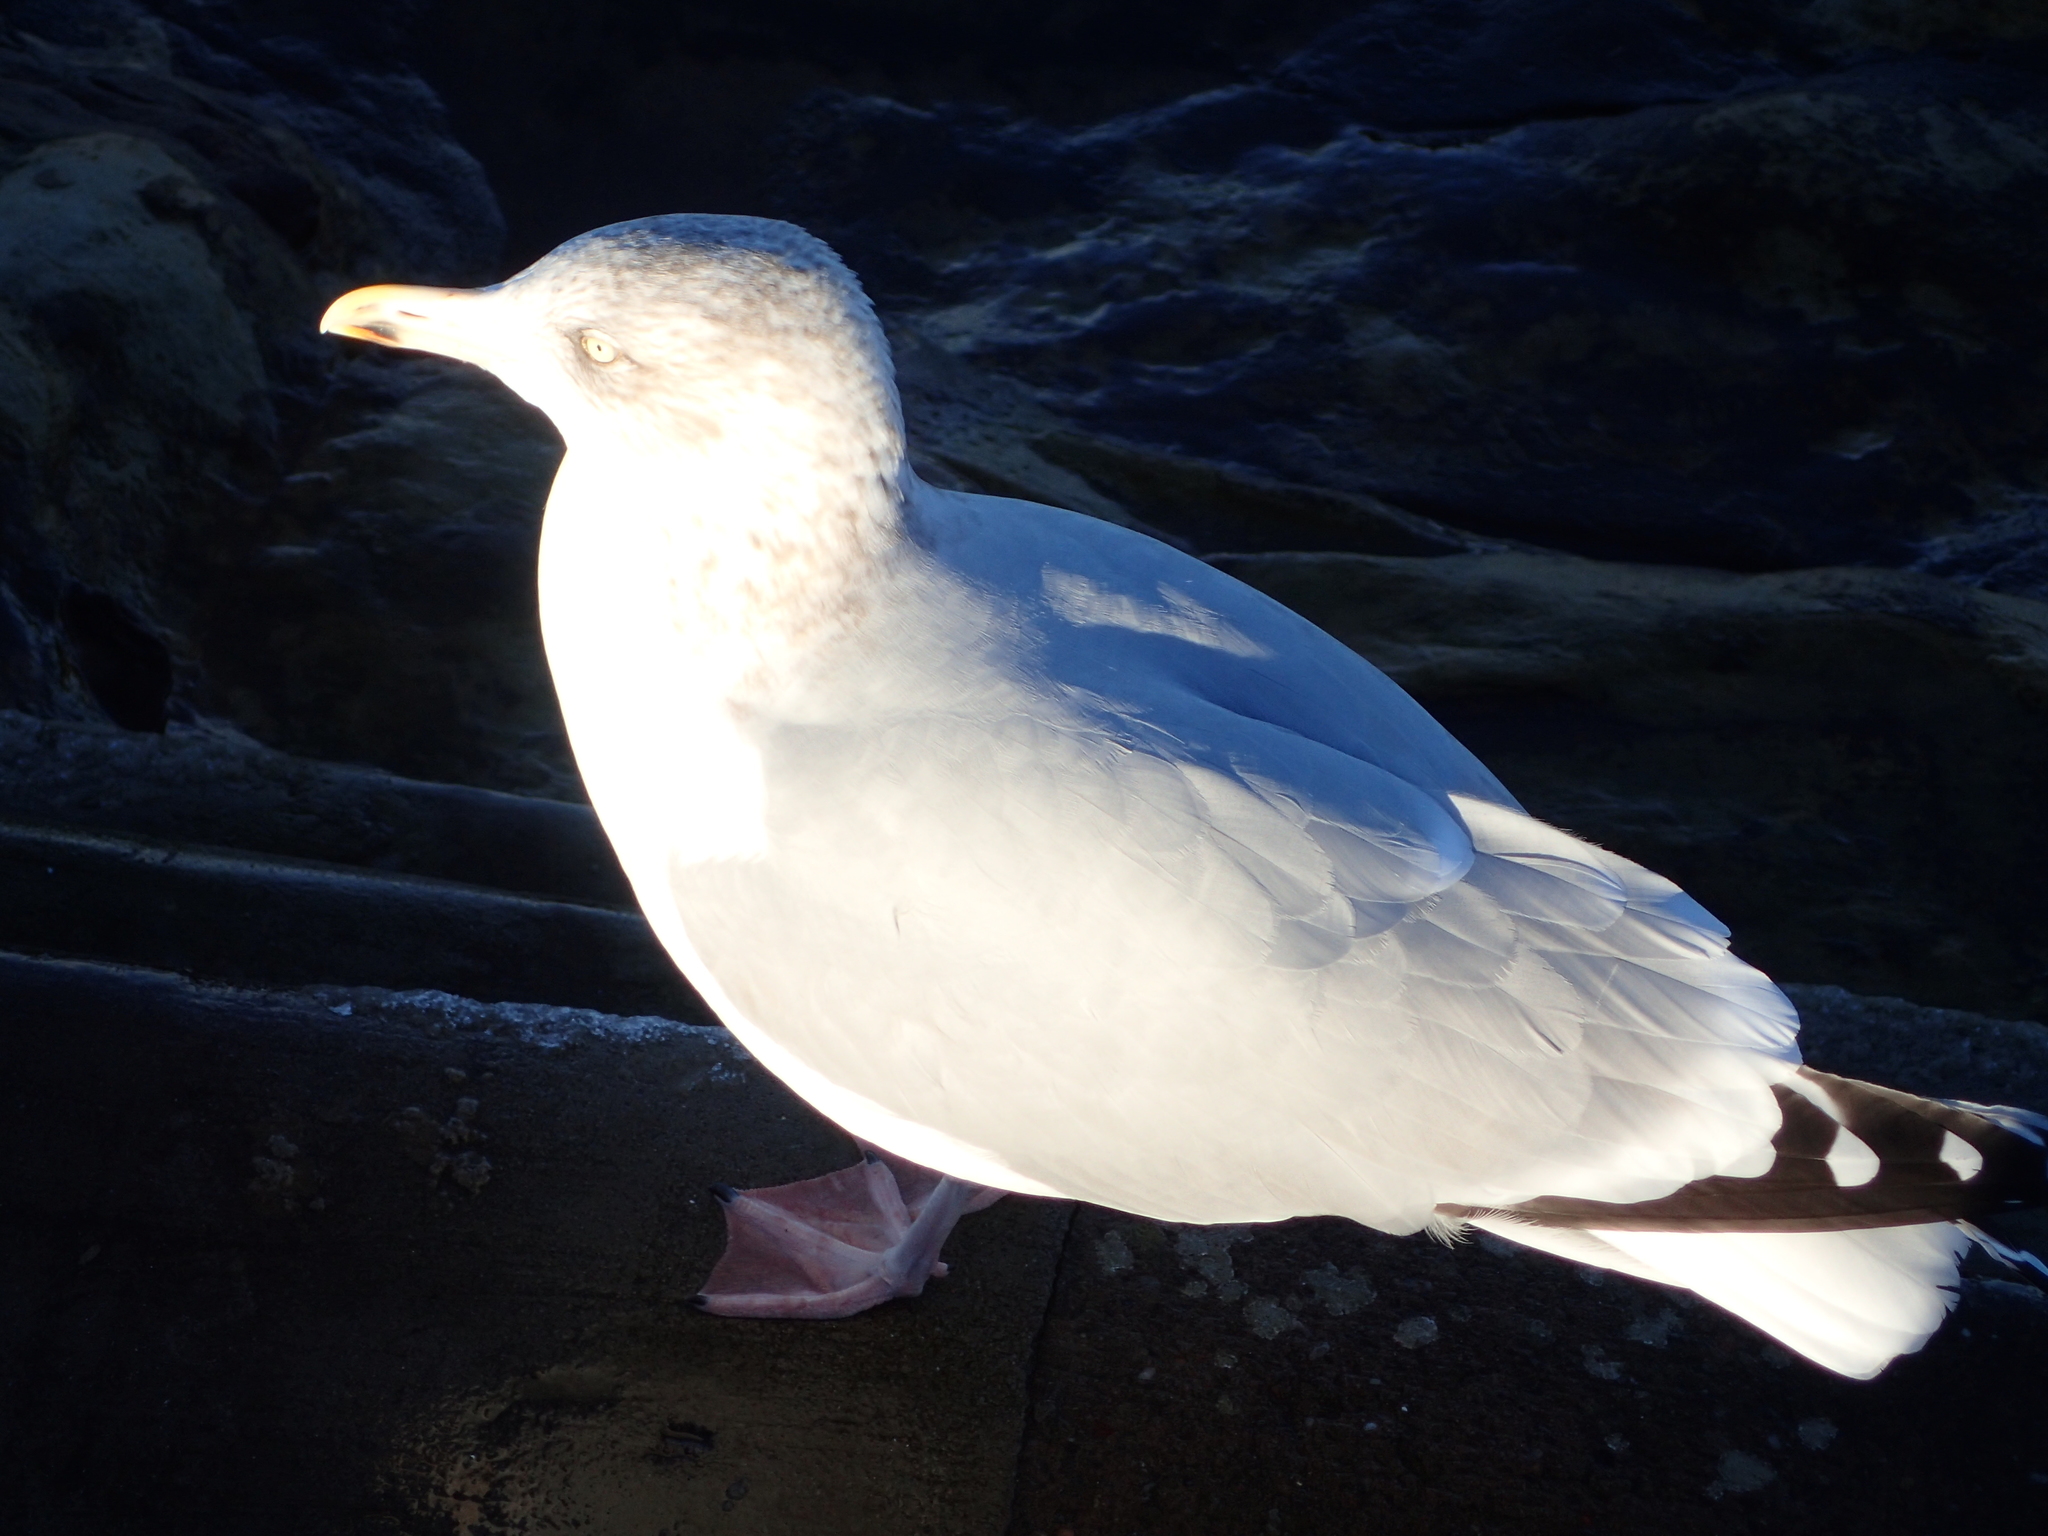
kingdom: Animalia
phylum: Chordata
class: Aves
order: Charadriiformes
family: Laridae
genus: Larus
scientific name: Larus argentatus
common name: Herring gull
